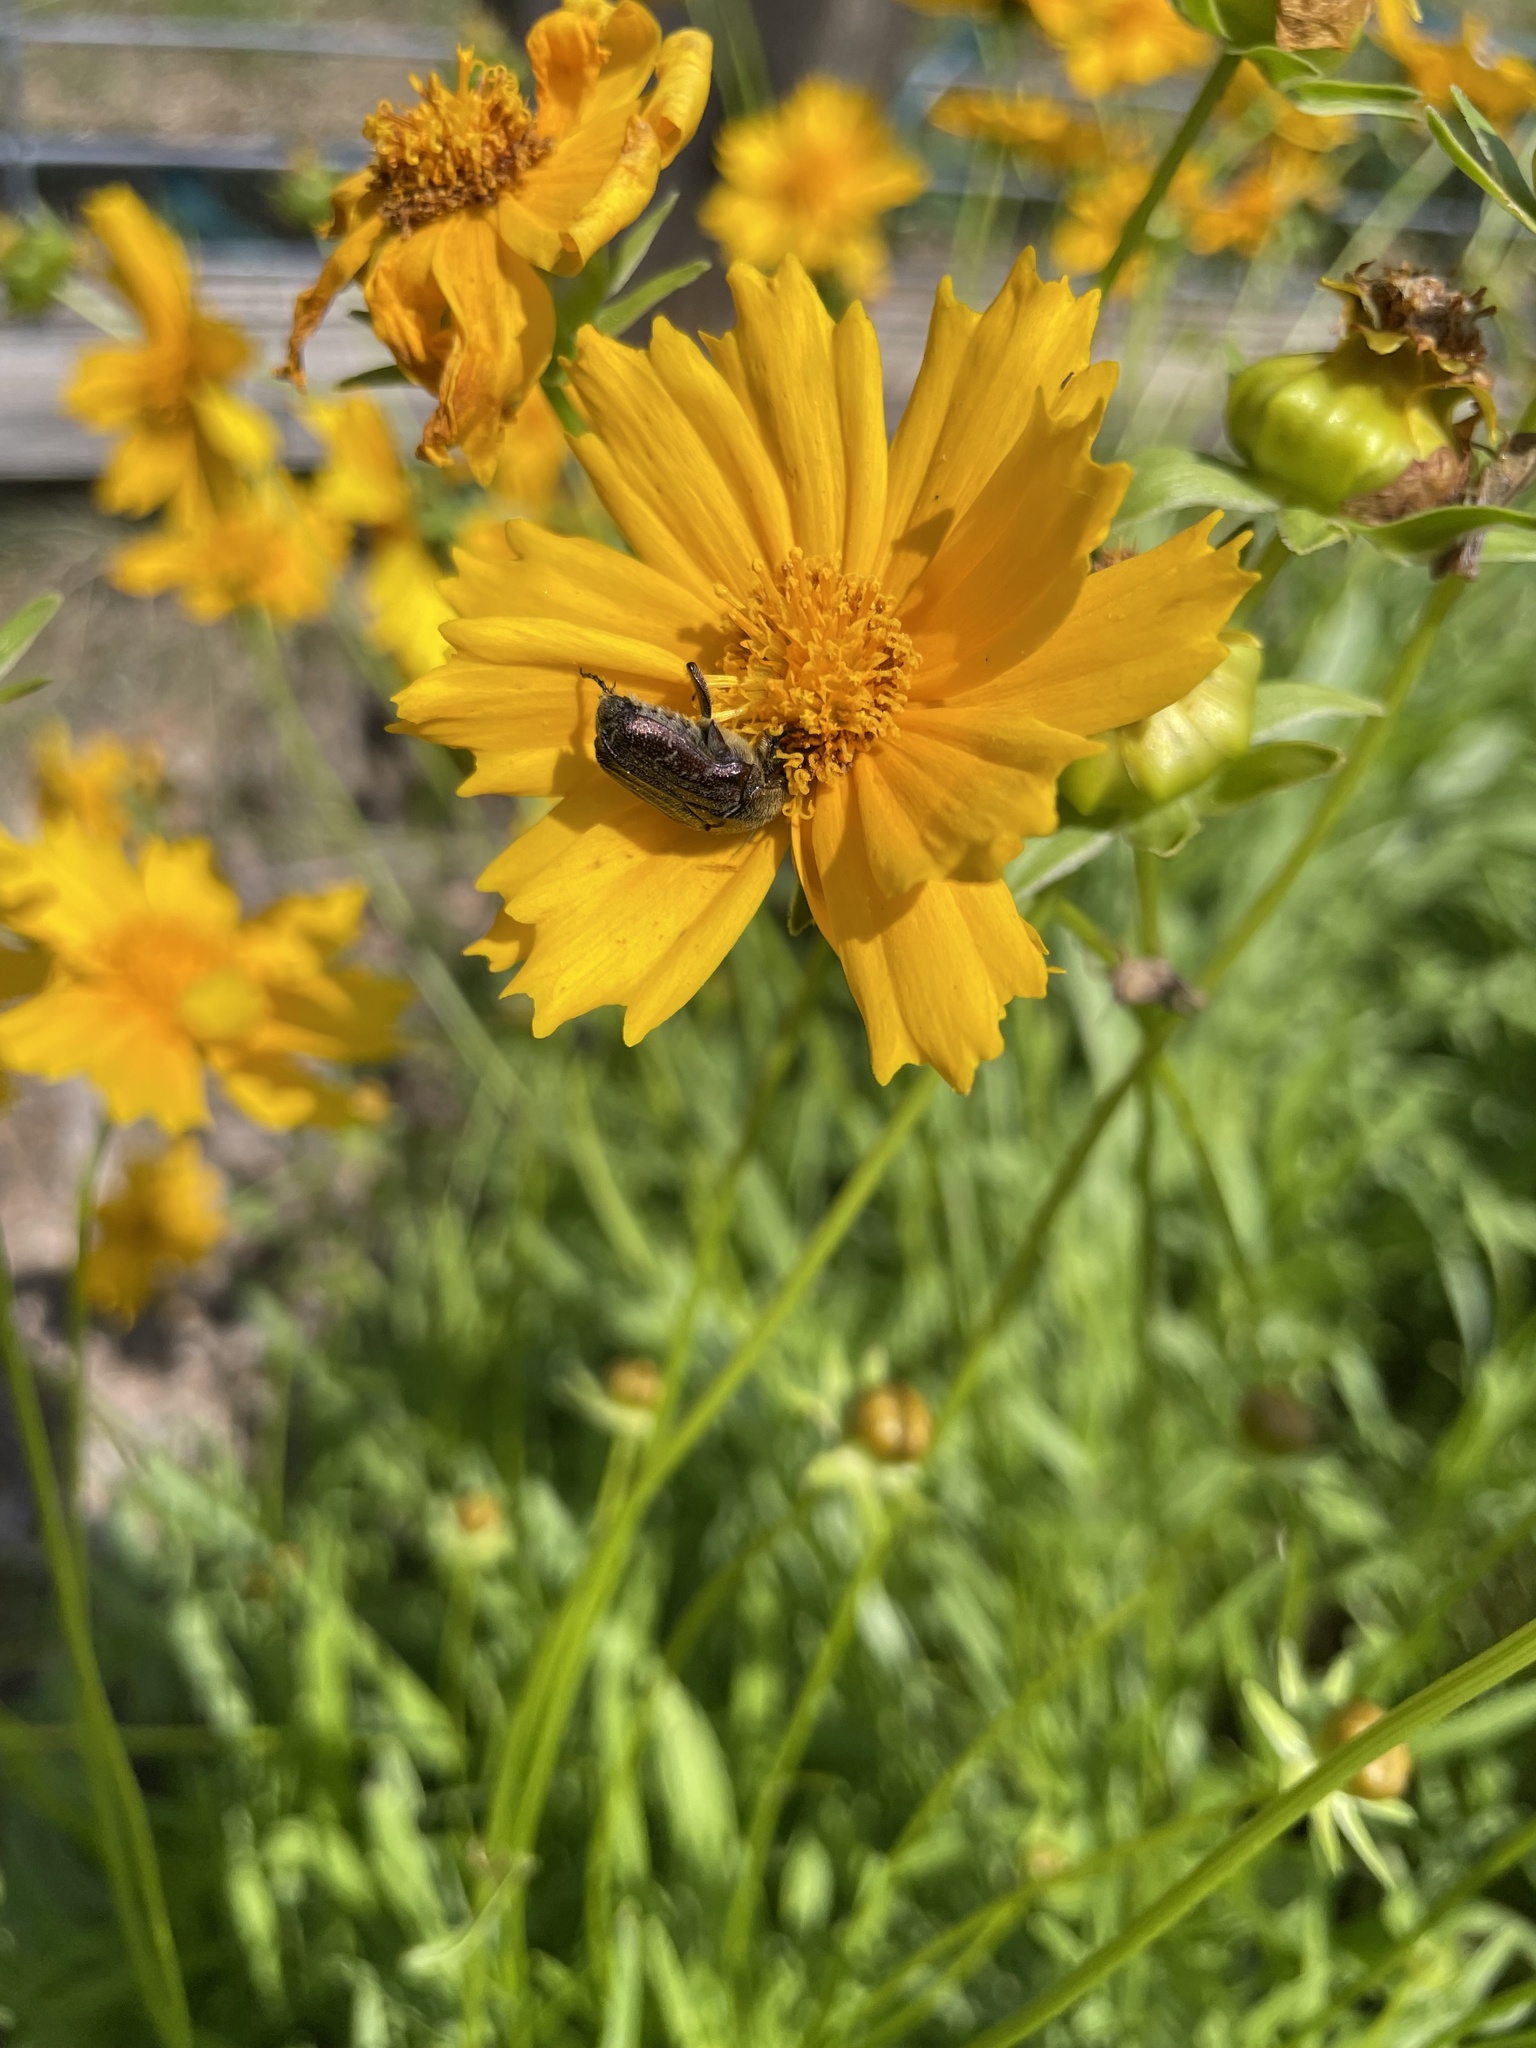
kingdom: Animalia
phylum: Arthropoda
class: Insecta
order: Coleoptera
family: Scarabaeidae
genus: Euphoria
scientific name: Euphoria sepulcralis
